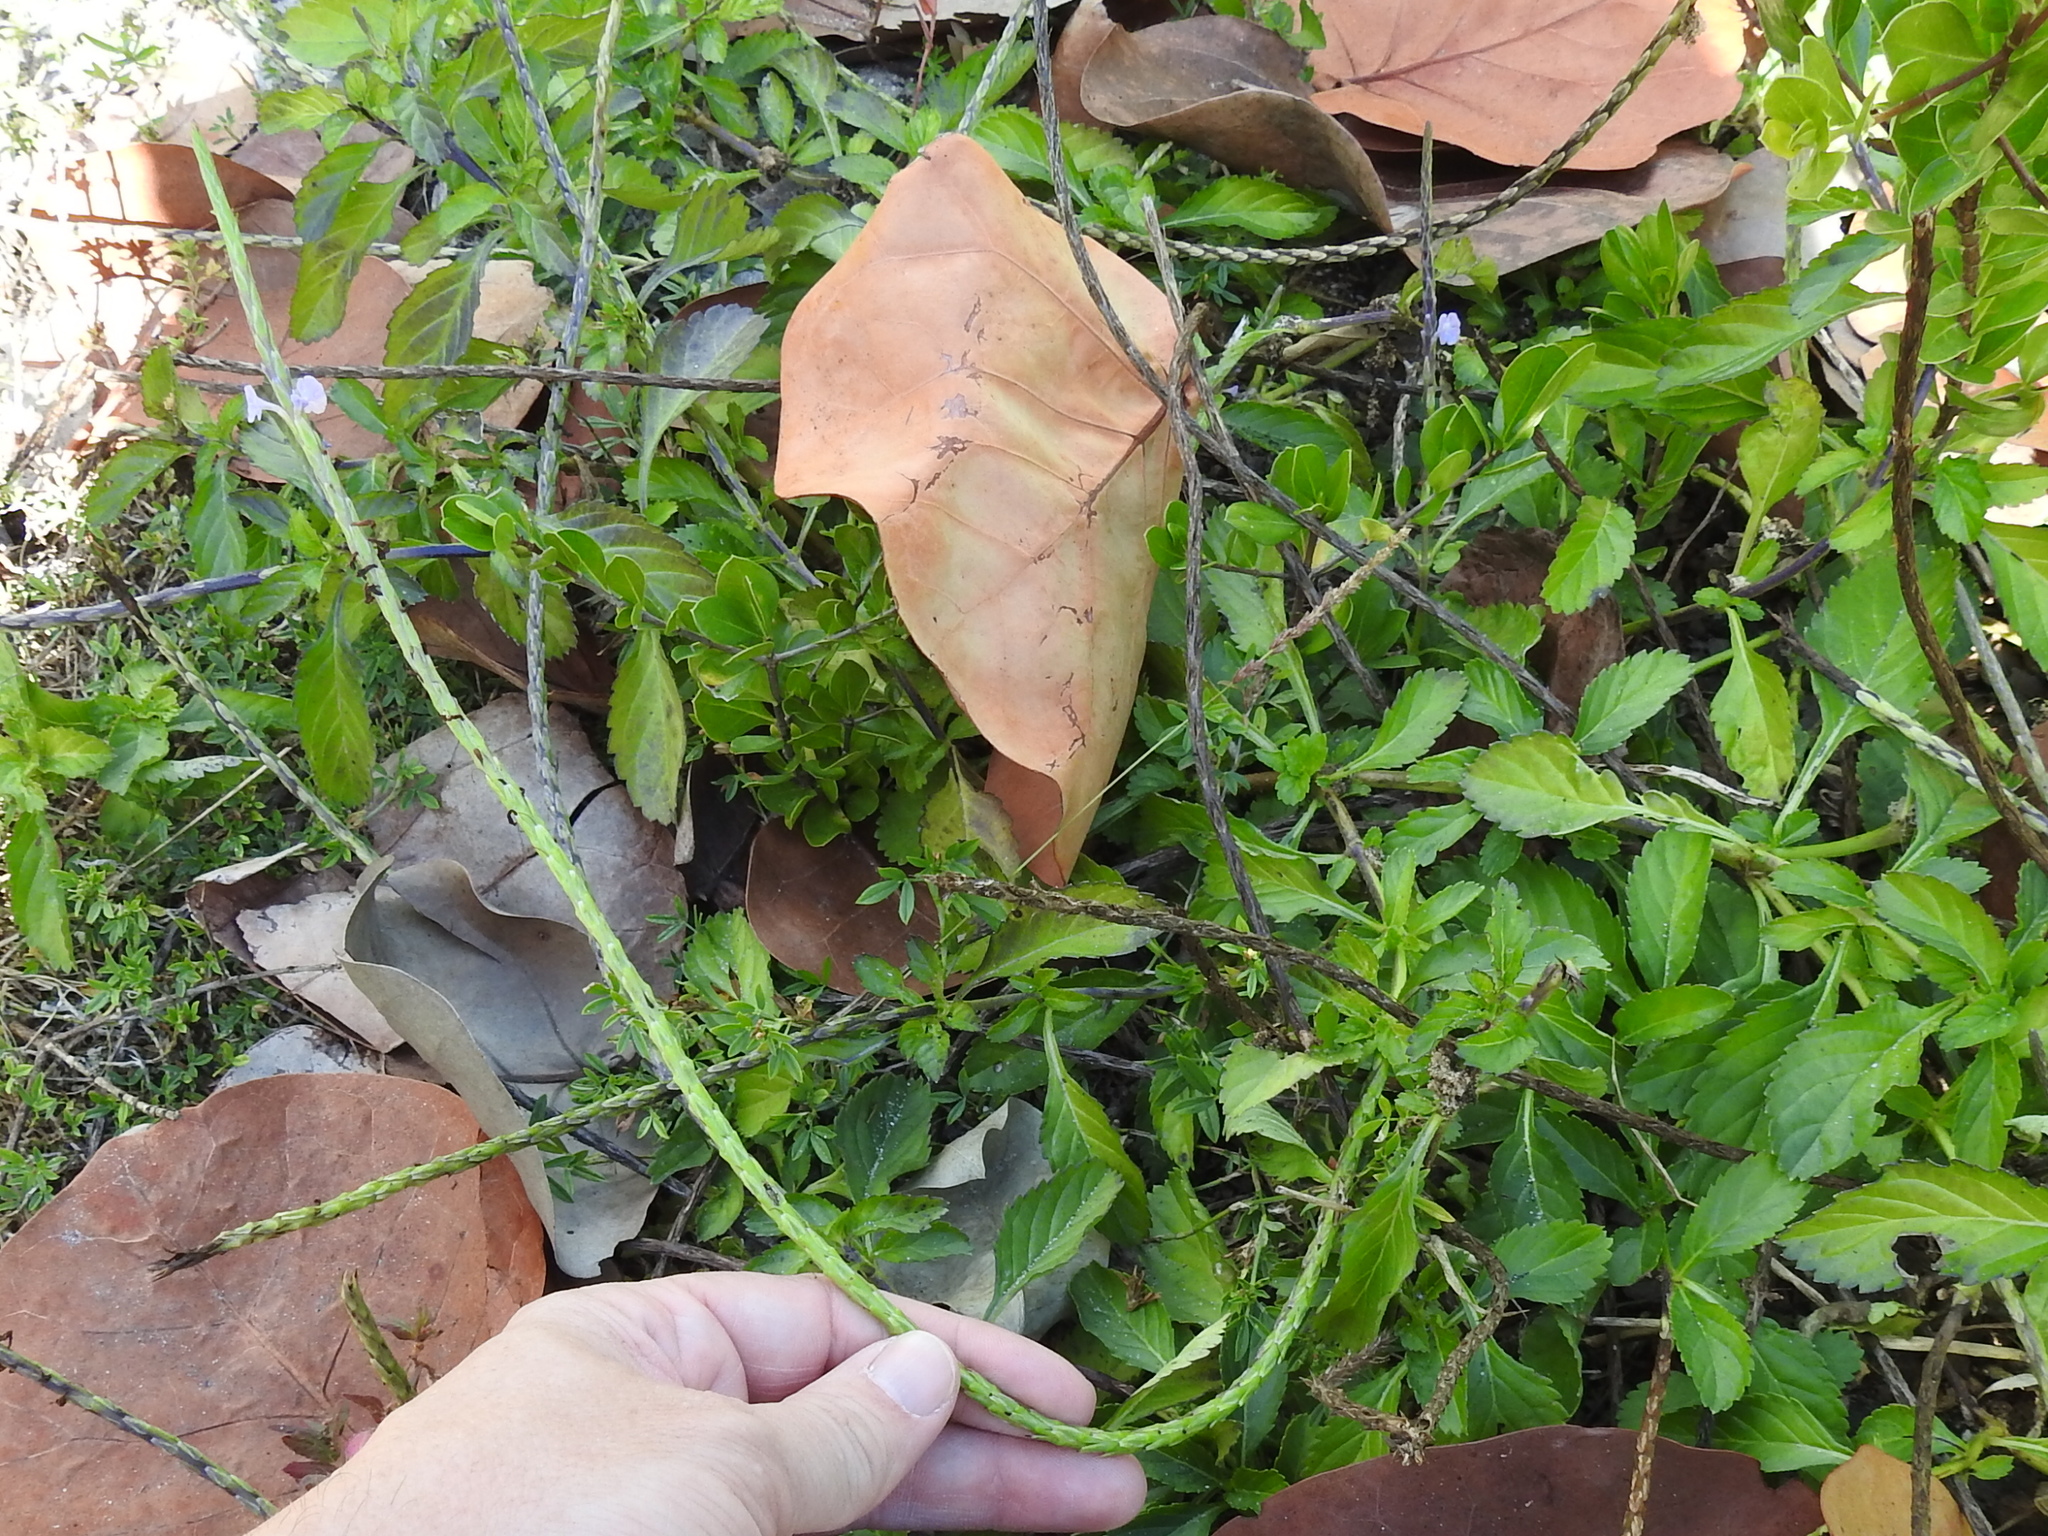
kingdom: Plantae
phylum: Tracheophyta
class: Magnoliopsida
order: Lamiales
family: Verbenaceae
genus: Stachytarpheta
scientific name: Stachytarpheta jamaicensis
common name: Light-blue snakeweed
